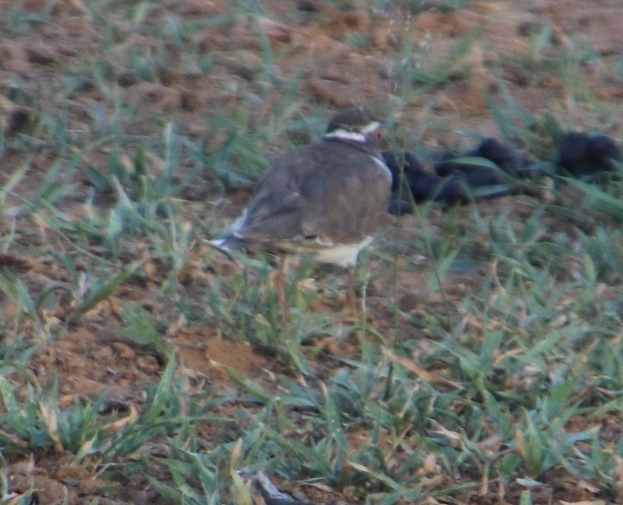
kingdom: Animalia
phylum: Chordata
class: Aves
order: Charadriiformes
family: Charadriidae
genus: Charadrius
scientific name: Charadrius tricollaris
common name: Three-banded plover
